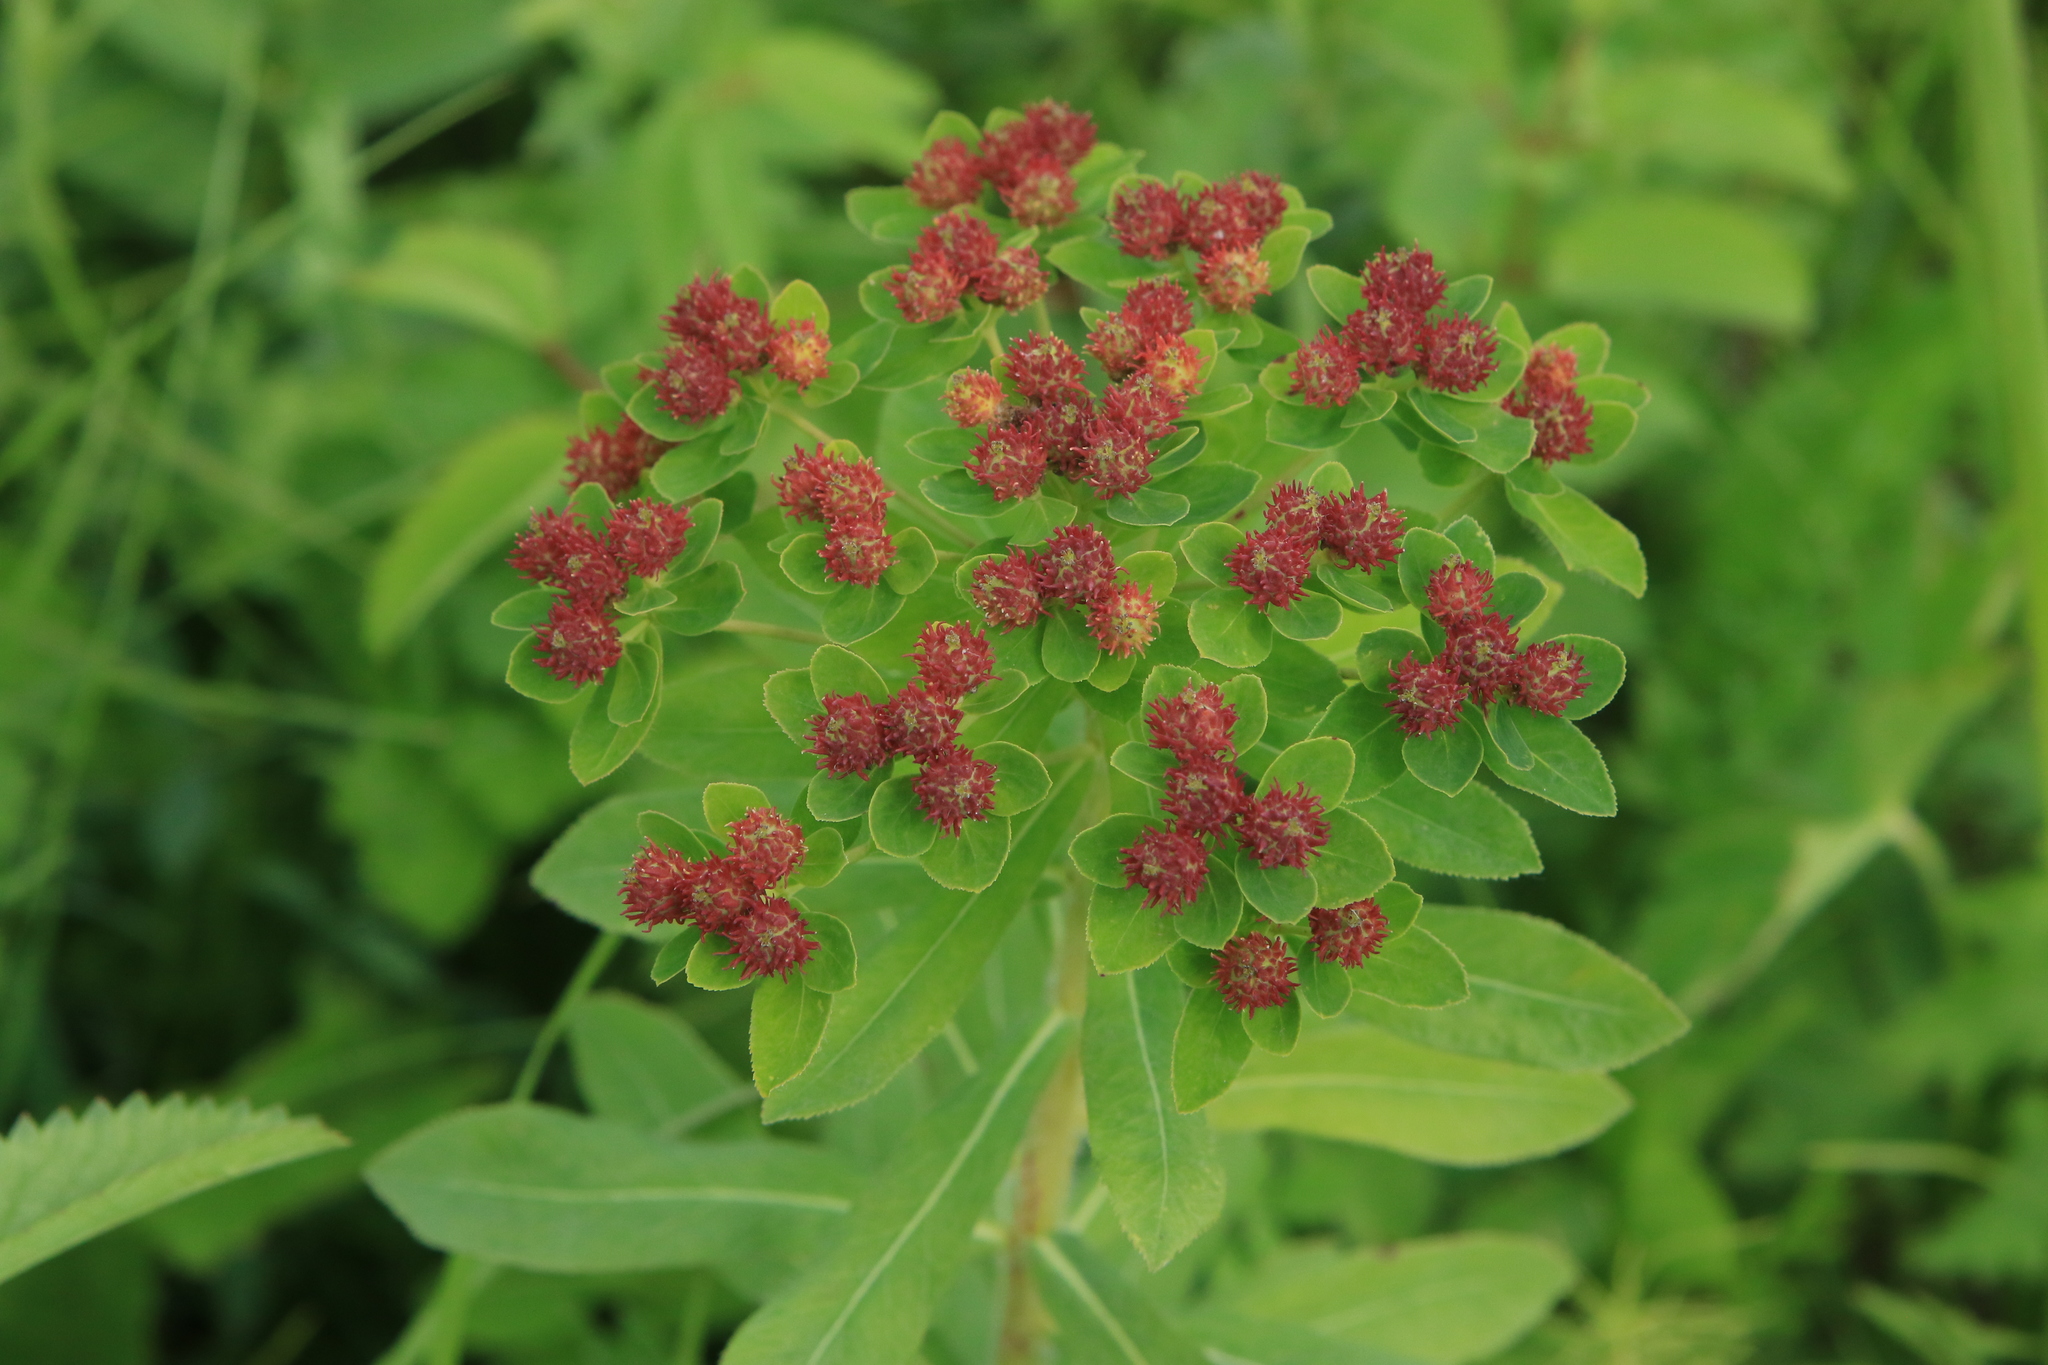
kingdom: Plantae
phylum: Tracheophyta
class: Magnoliopsida
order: Malpighiales
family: Euphorbiaceae
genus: Euphorbia
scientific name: Euphorbia pilosa
